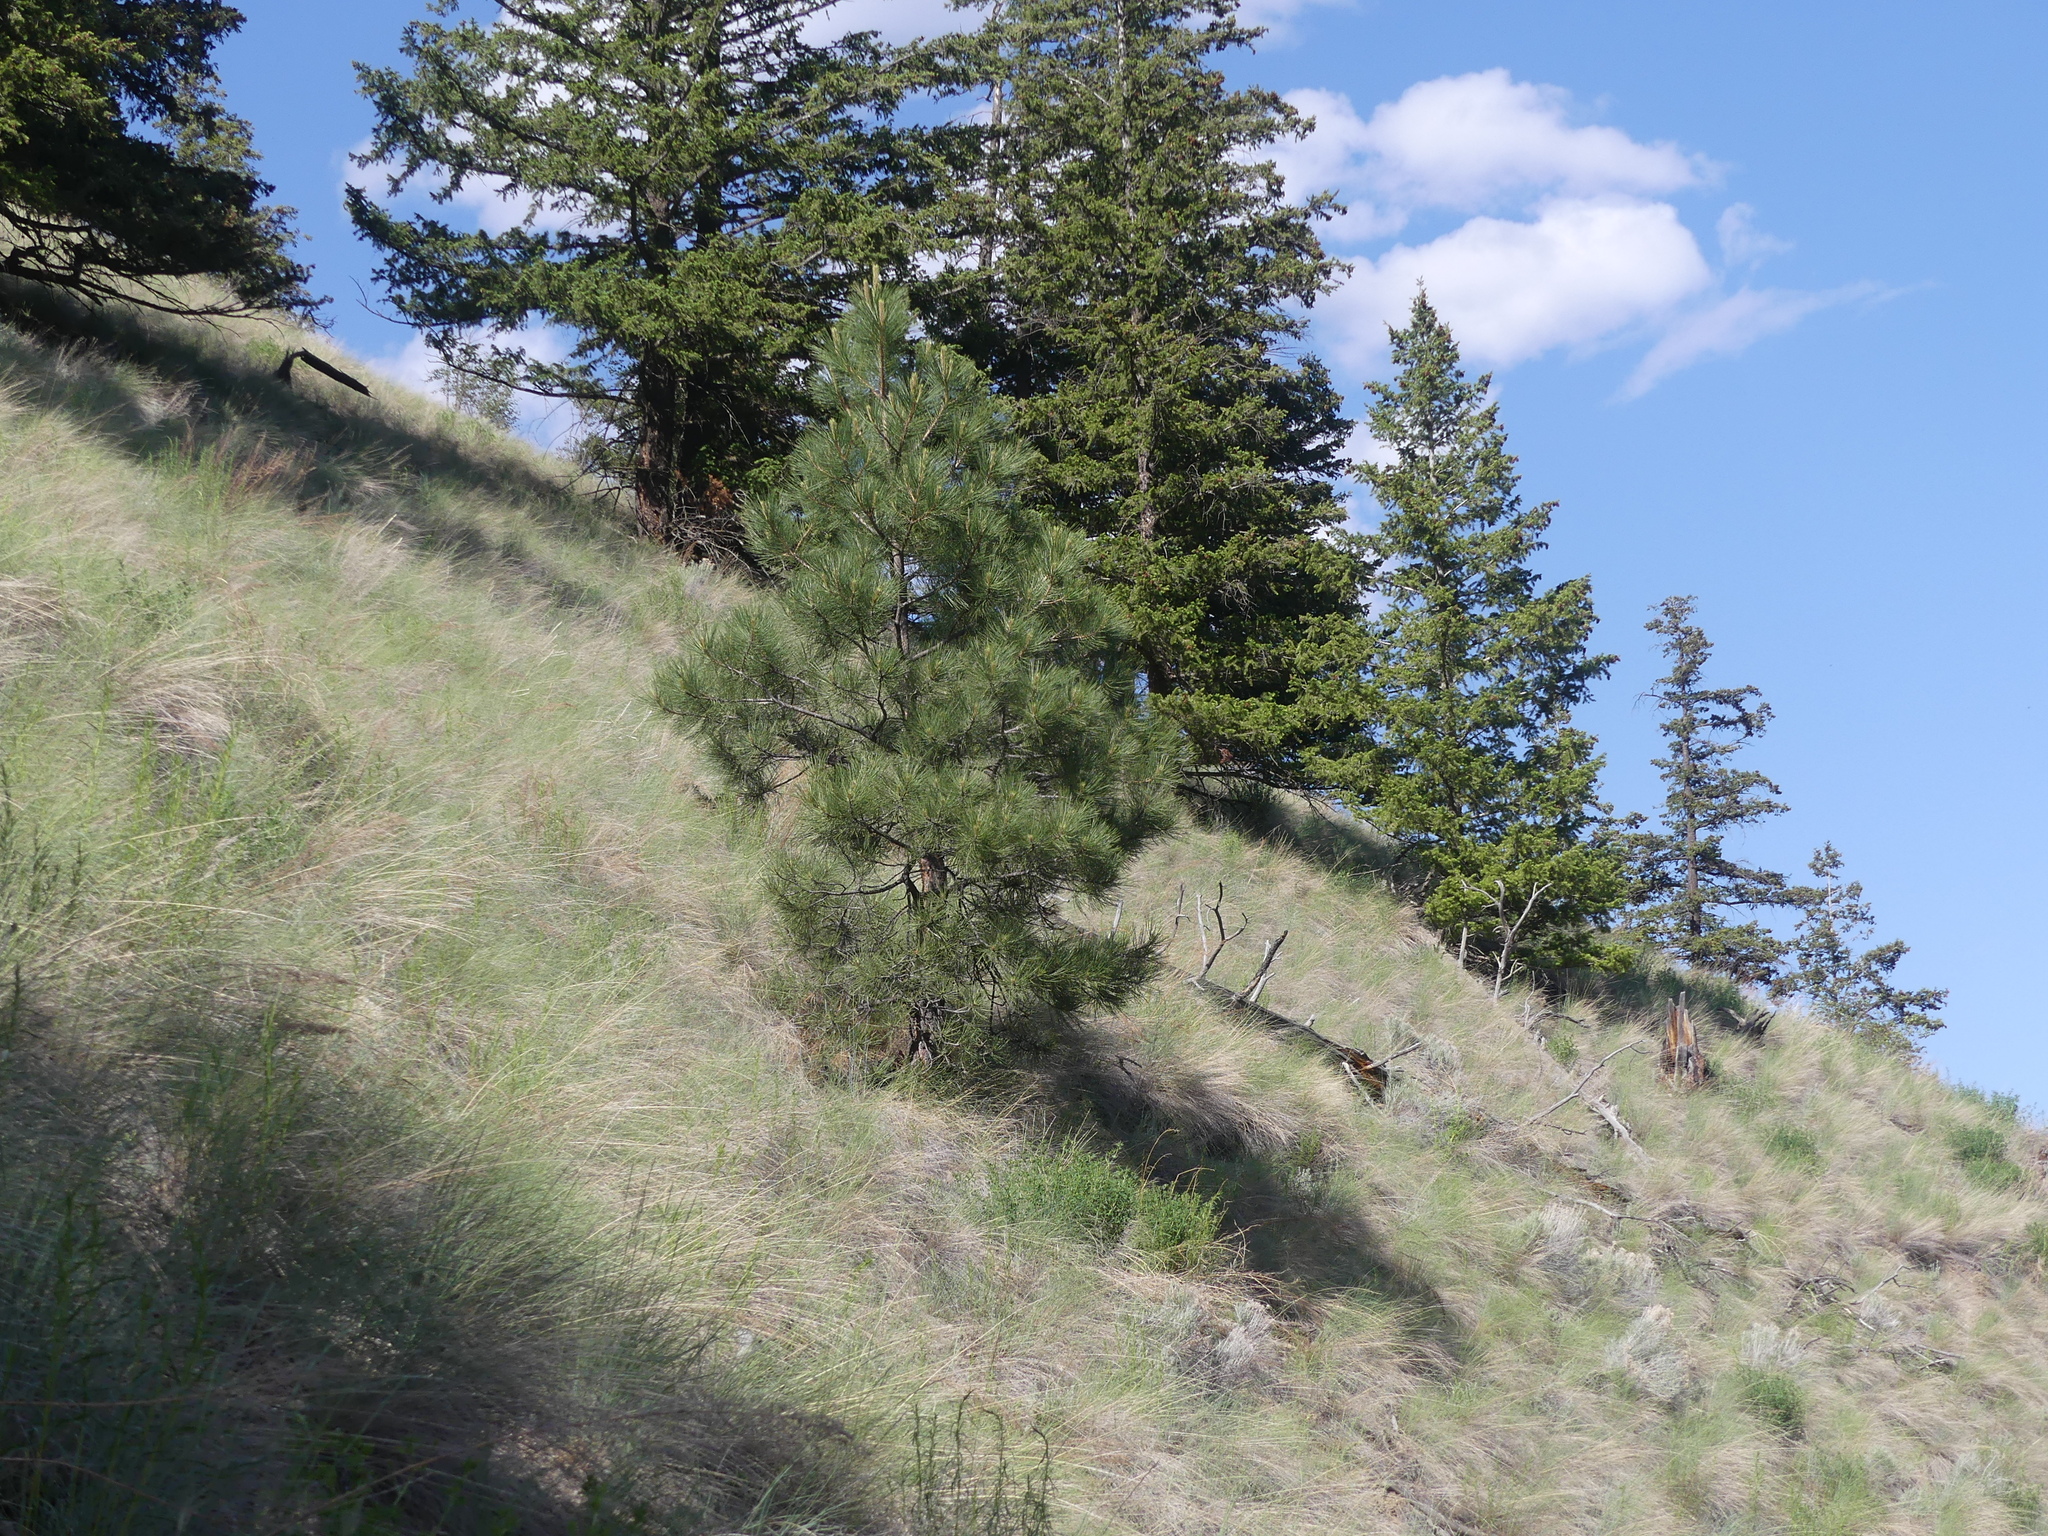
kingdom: Plantae
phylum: Tracheophyta
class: Pinopsida
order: Pinales
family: Pinaceae
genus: Pinus
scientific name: Pinus ponderosa
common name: Western yellow-pine
